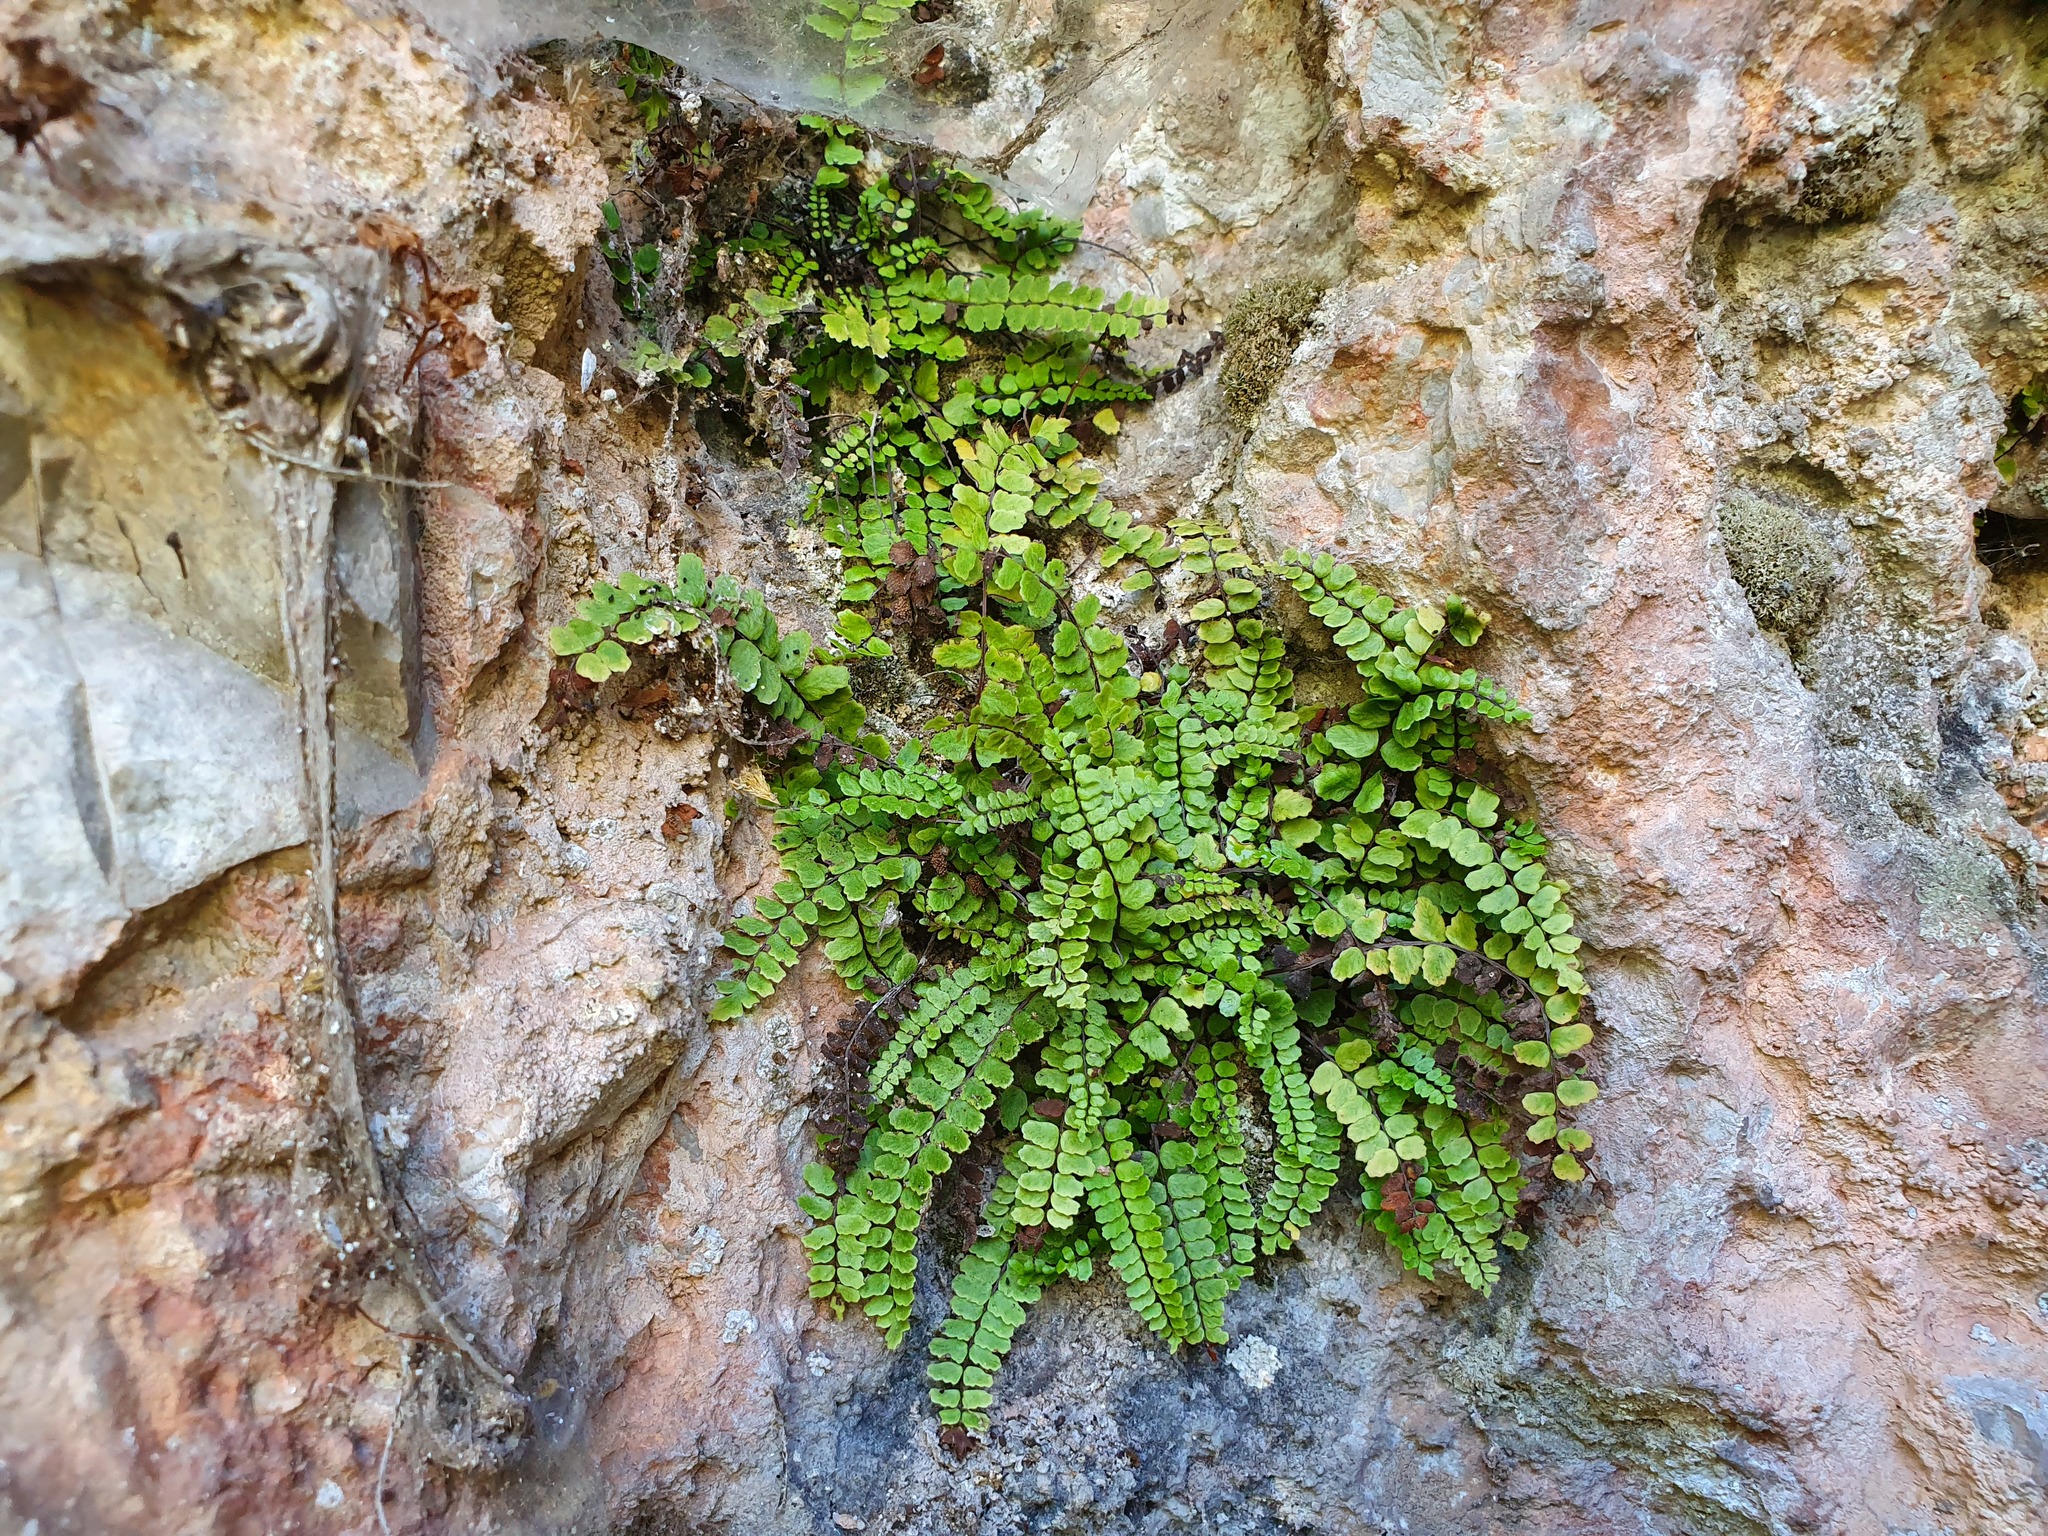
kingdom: Plantae
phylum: Tracheophyta
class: Polypodiopsida
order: Polypodiales
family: Aspleniaceae
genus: Asplenium
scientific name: Asplenium trichomanes
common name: Maidenhair spleenwort
